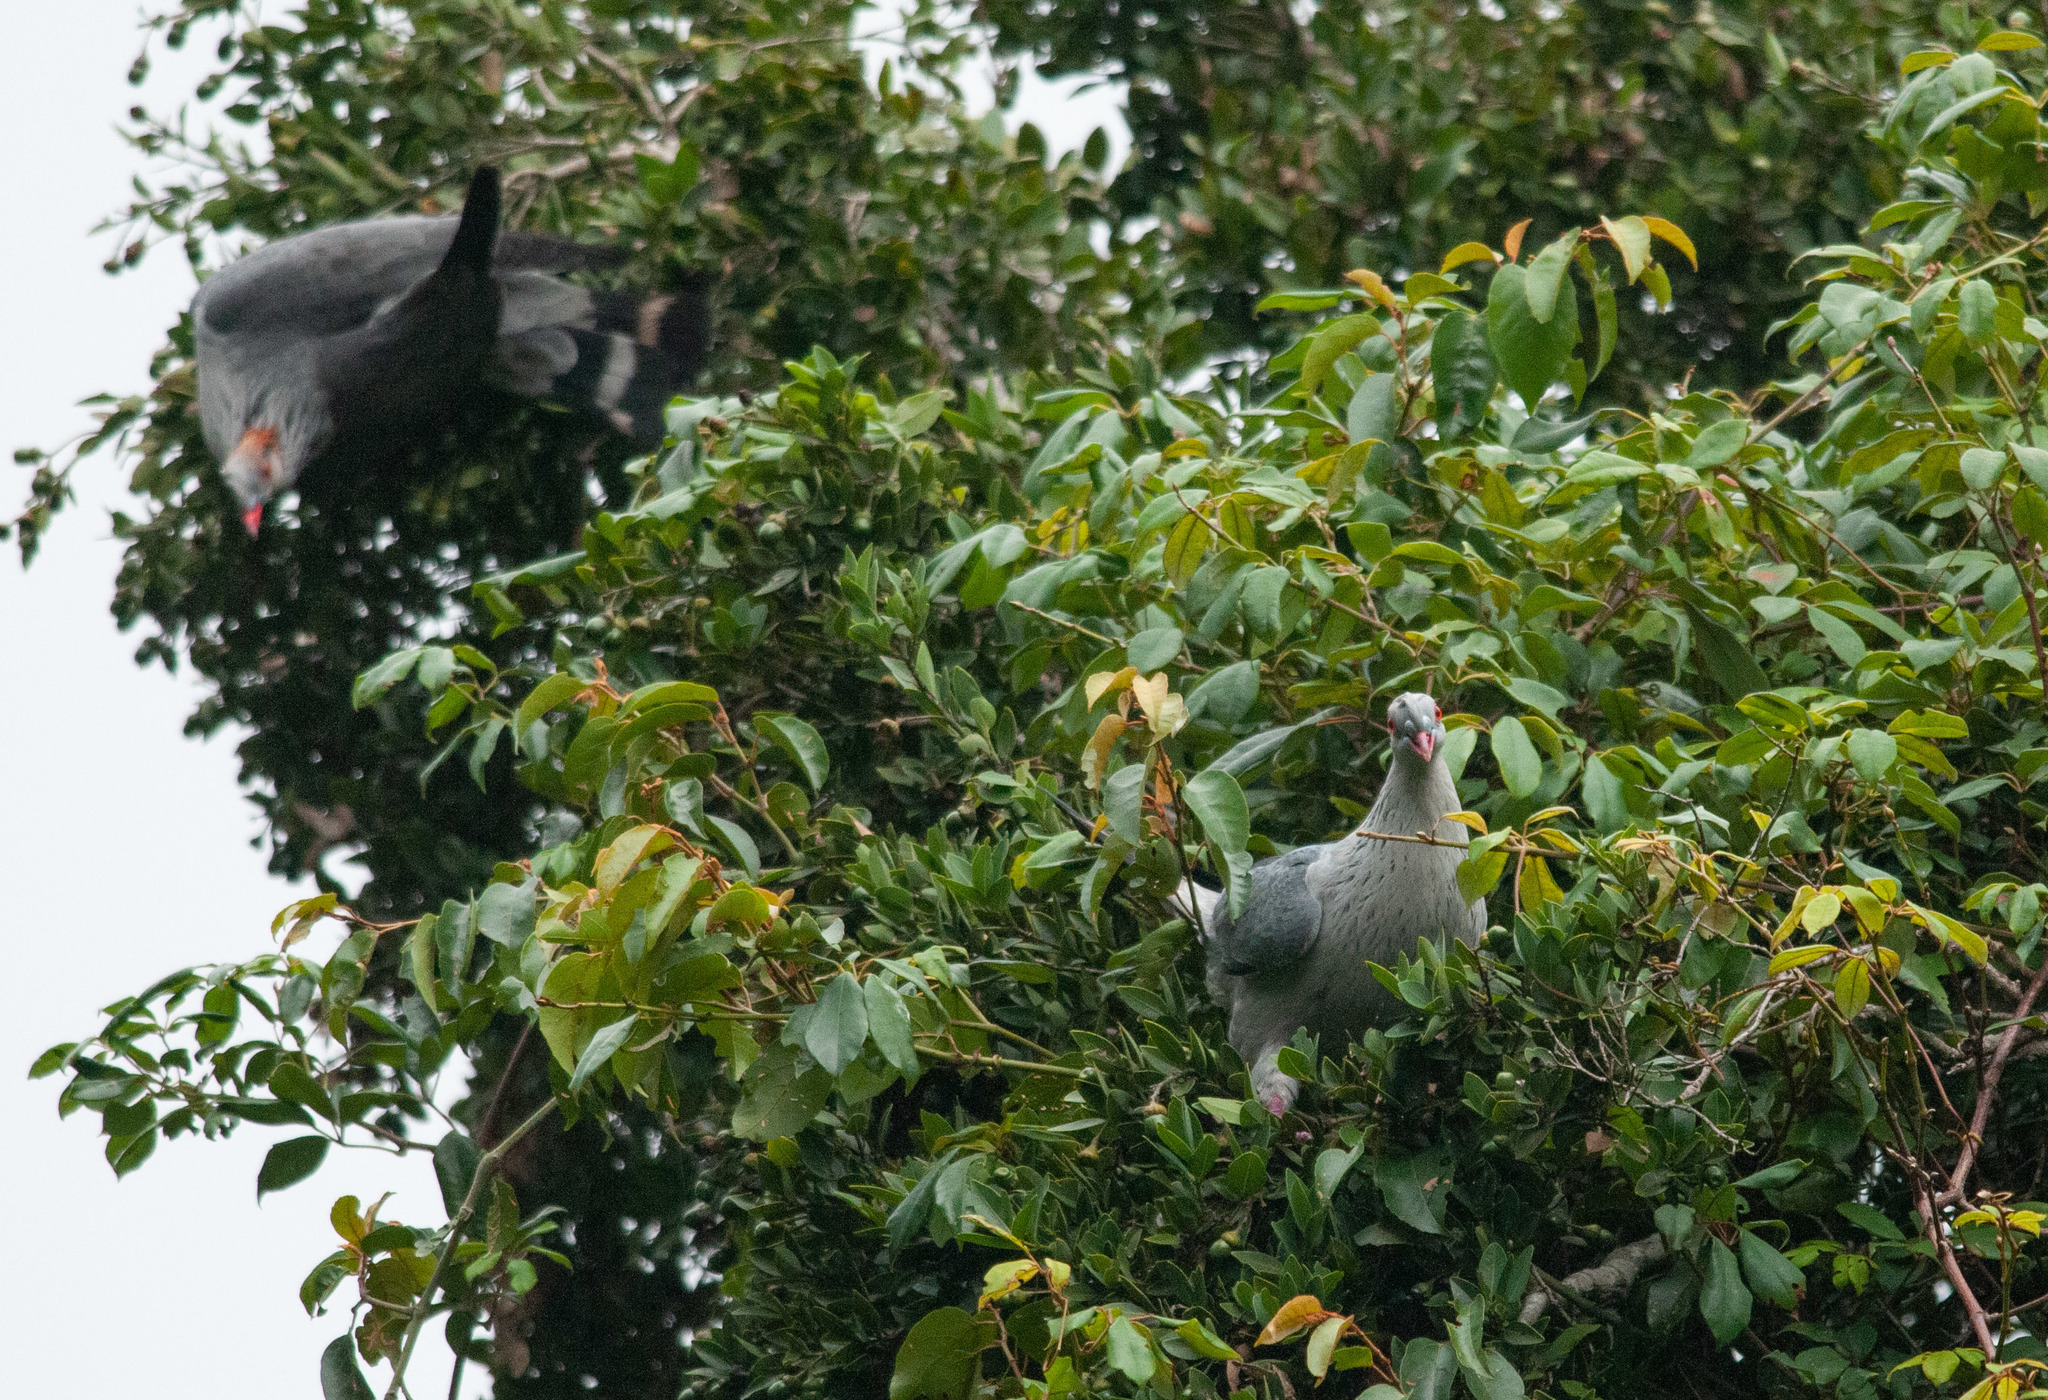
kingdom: Animalia
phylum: Chordata
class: Aves
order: Columbiformes
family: Columbidae
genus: Lopholaimus
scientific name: Lopholaimus antarcticus
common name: Topknot pigeon
